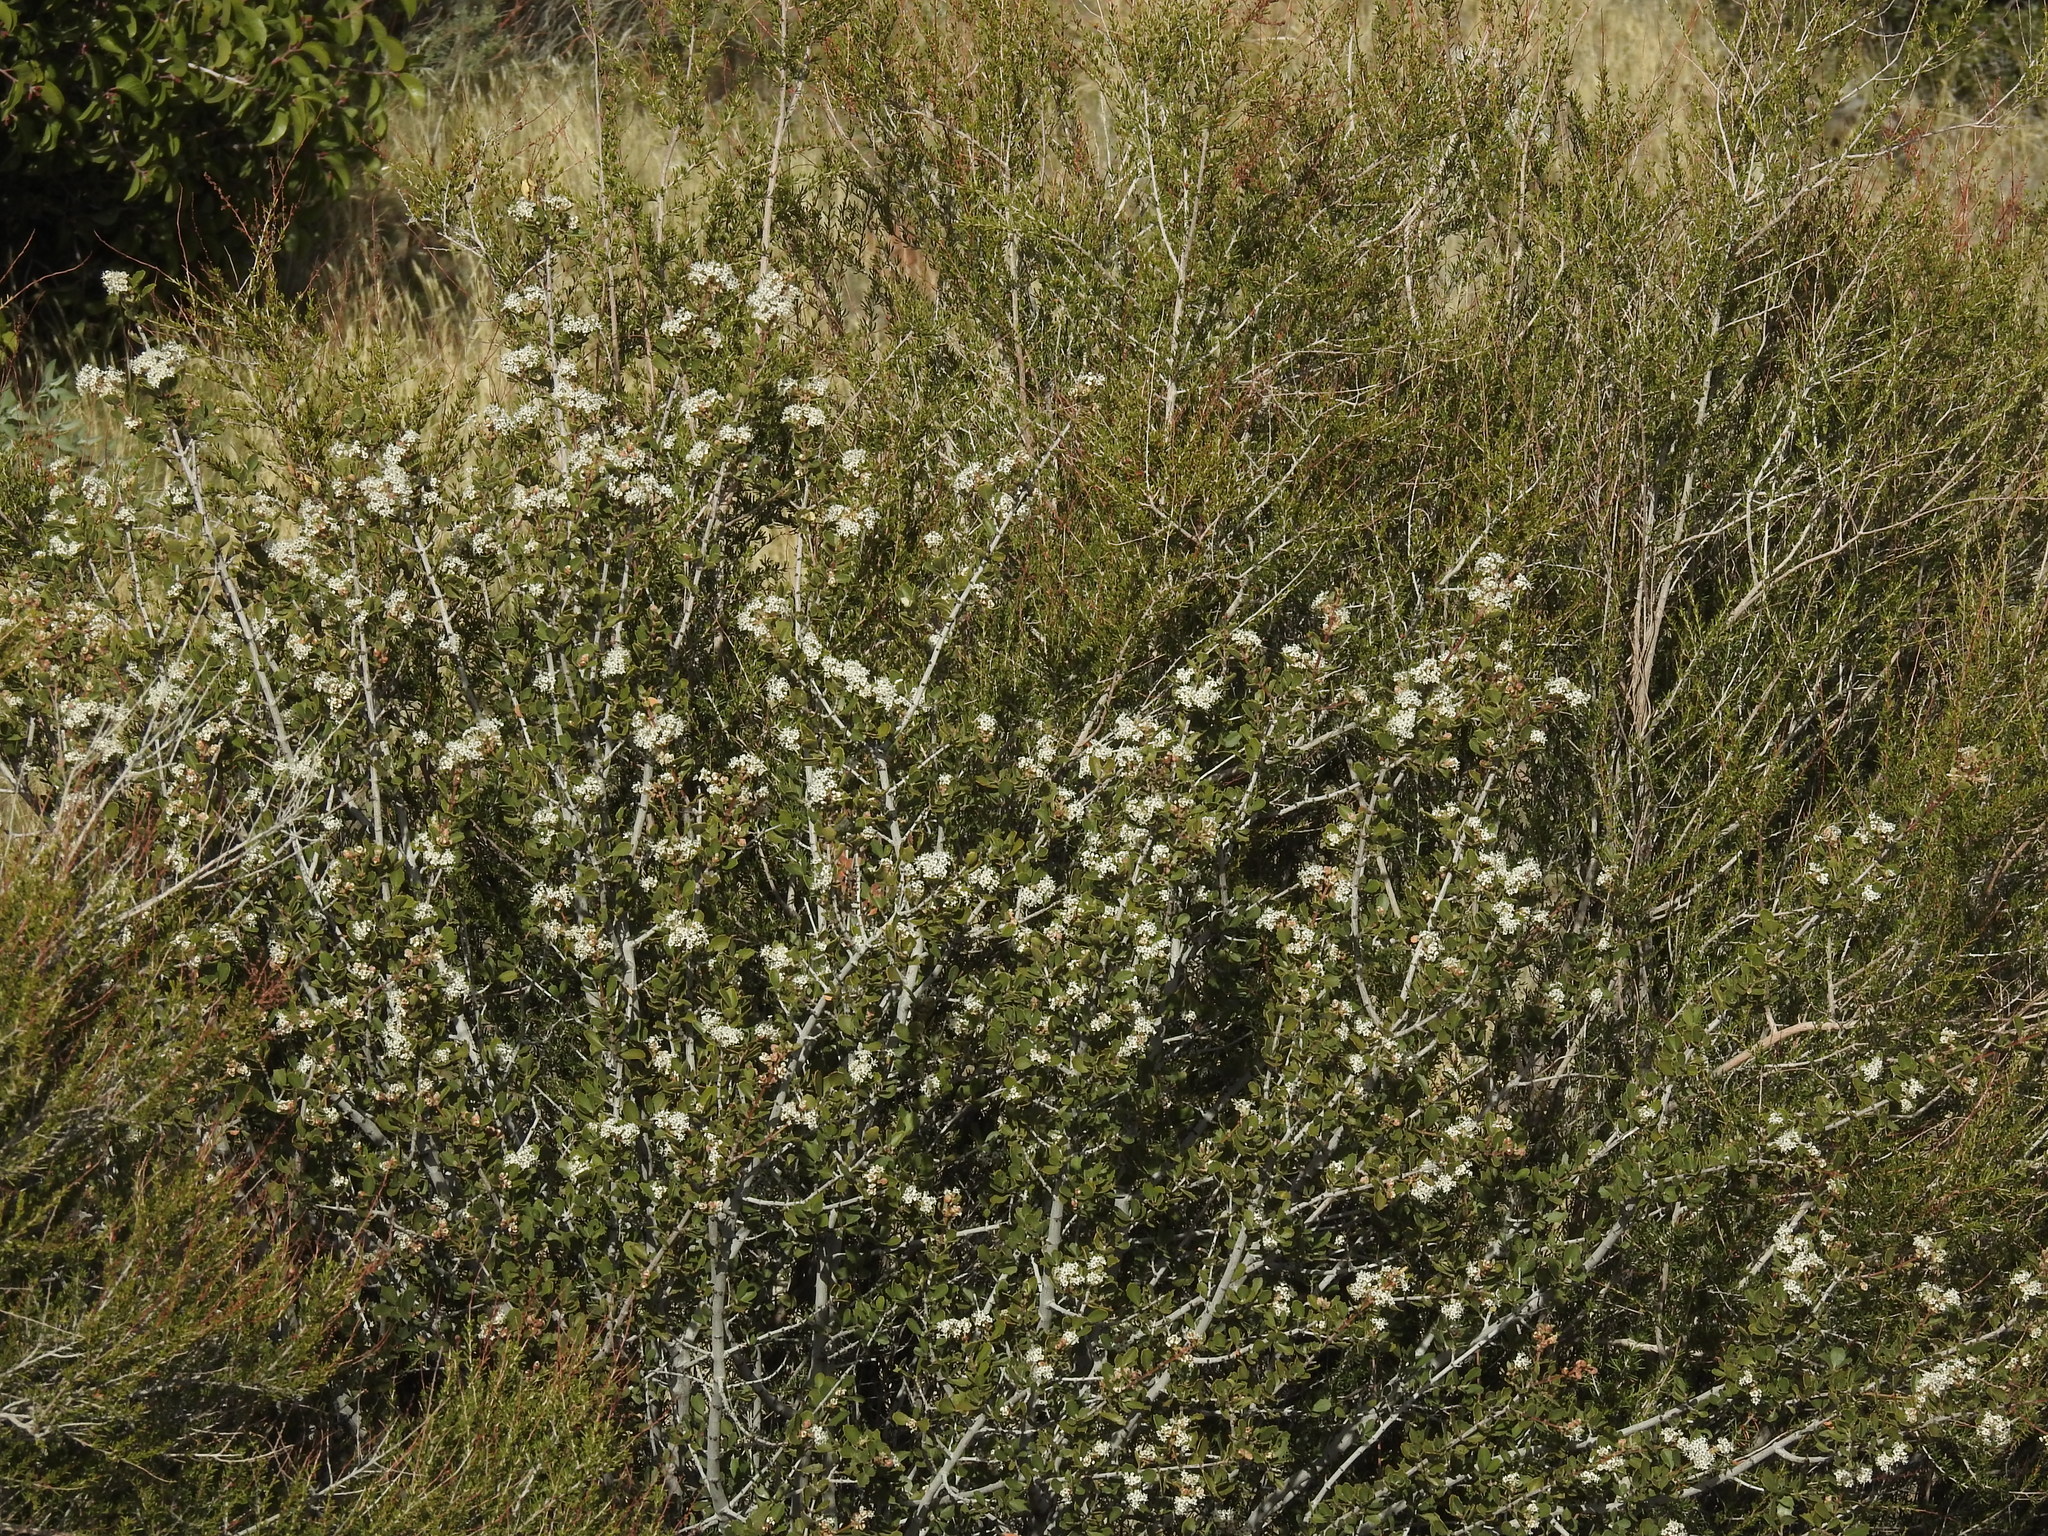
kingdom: Plantae
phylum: Tracheophyta
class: Magnoliopsida
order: Rosales
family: Rhamnaceae
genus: Ceanothus
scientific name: Ceanothus perplexans
